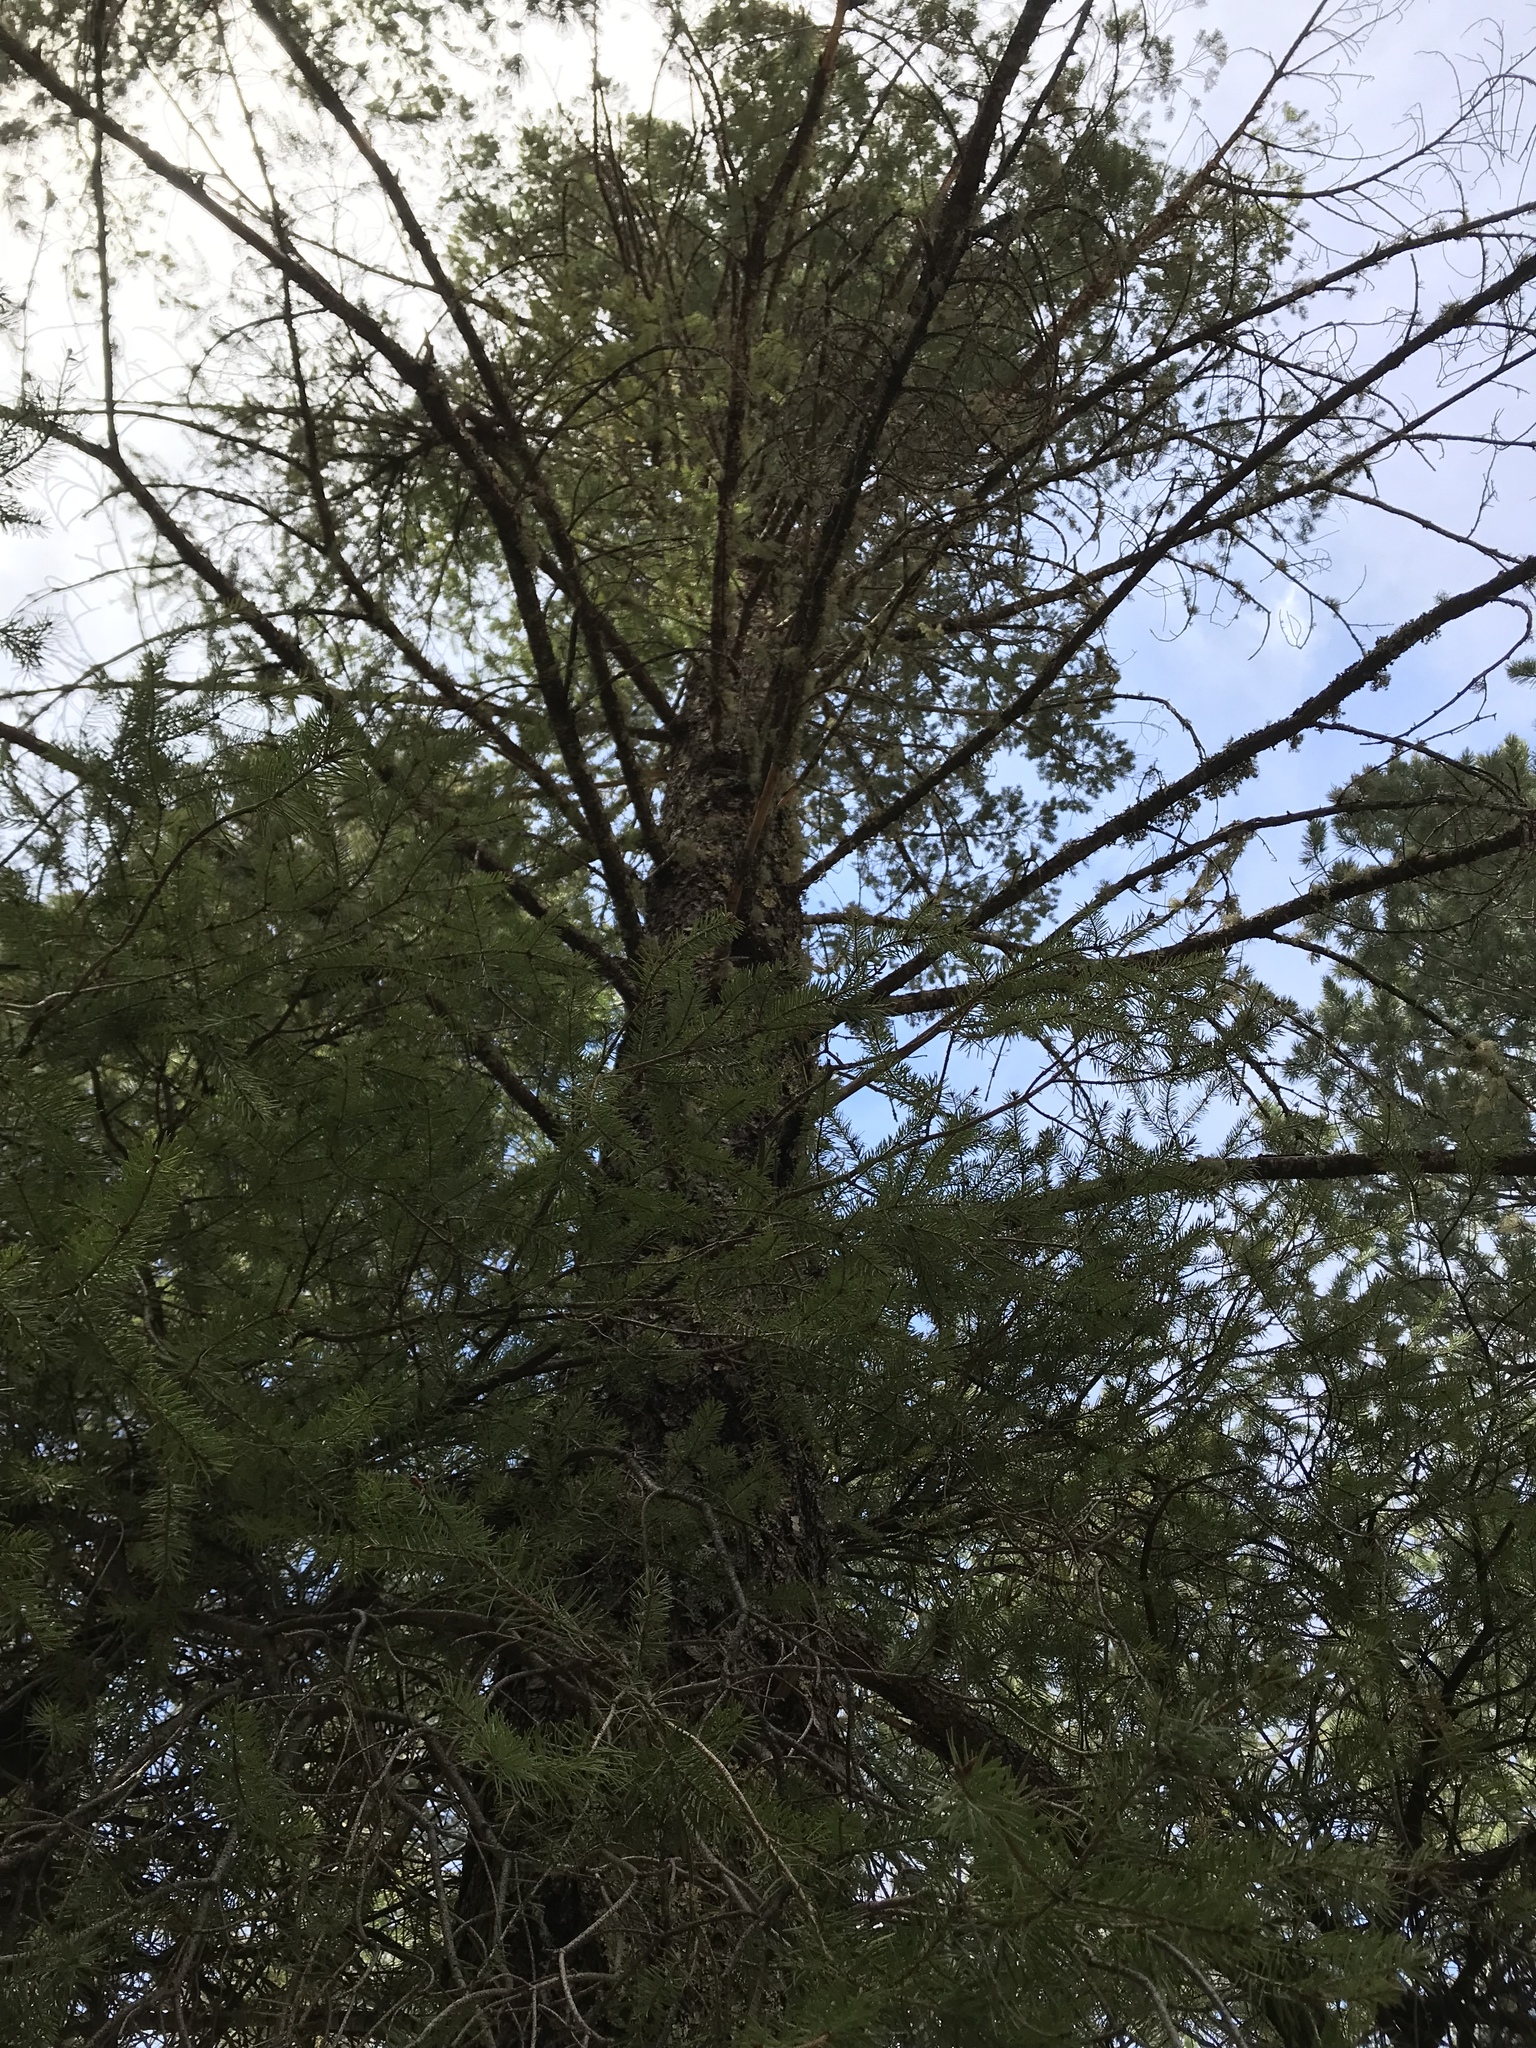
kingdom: Plantae
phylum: Tracheophyta
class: Pinopsida
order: Pinales
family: Pinaceae
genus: Abies
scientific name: Abies concolor
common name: Colorado fir
